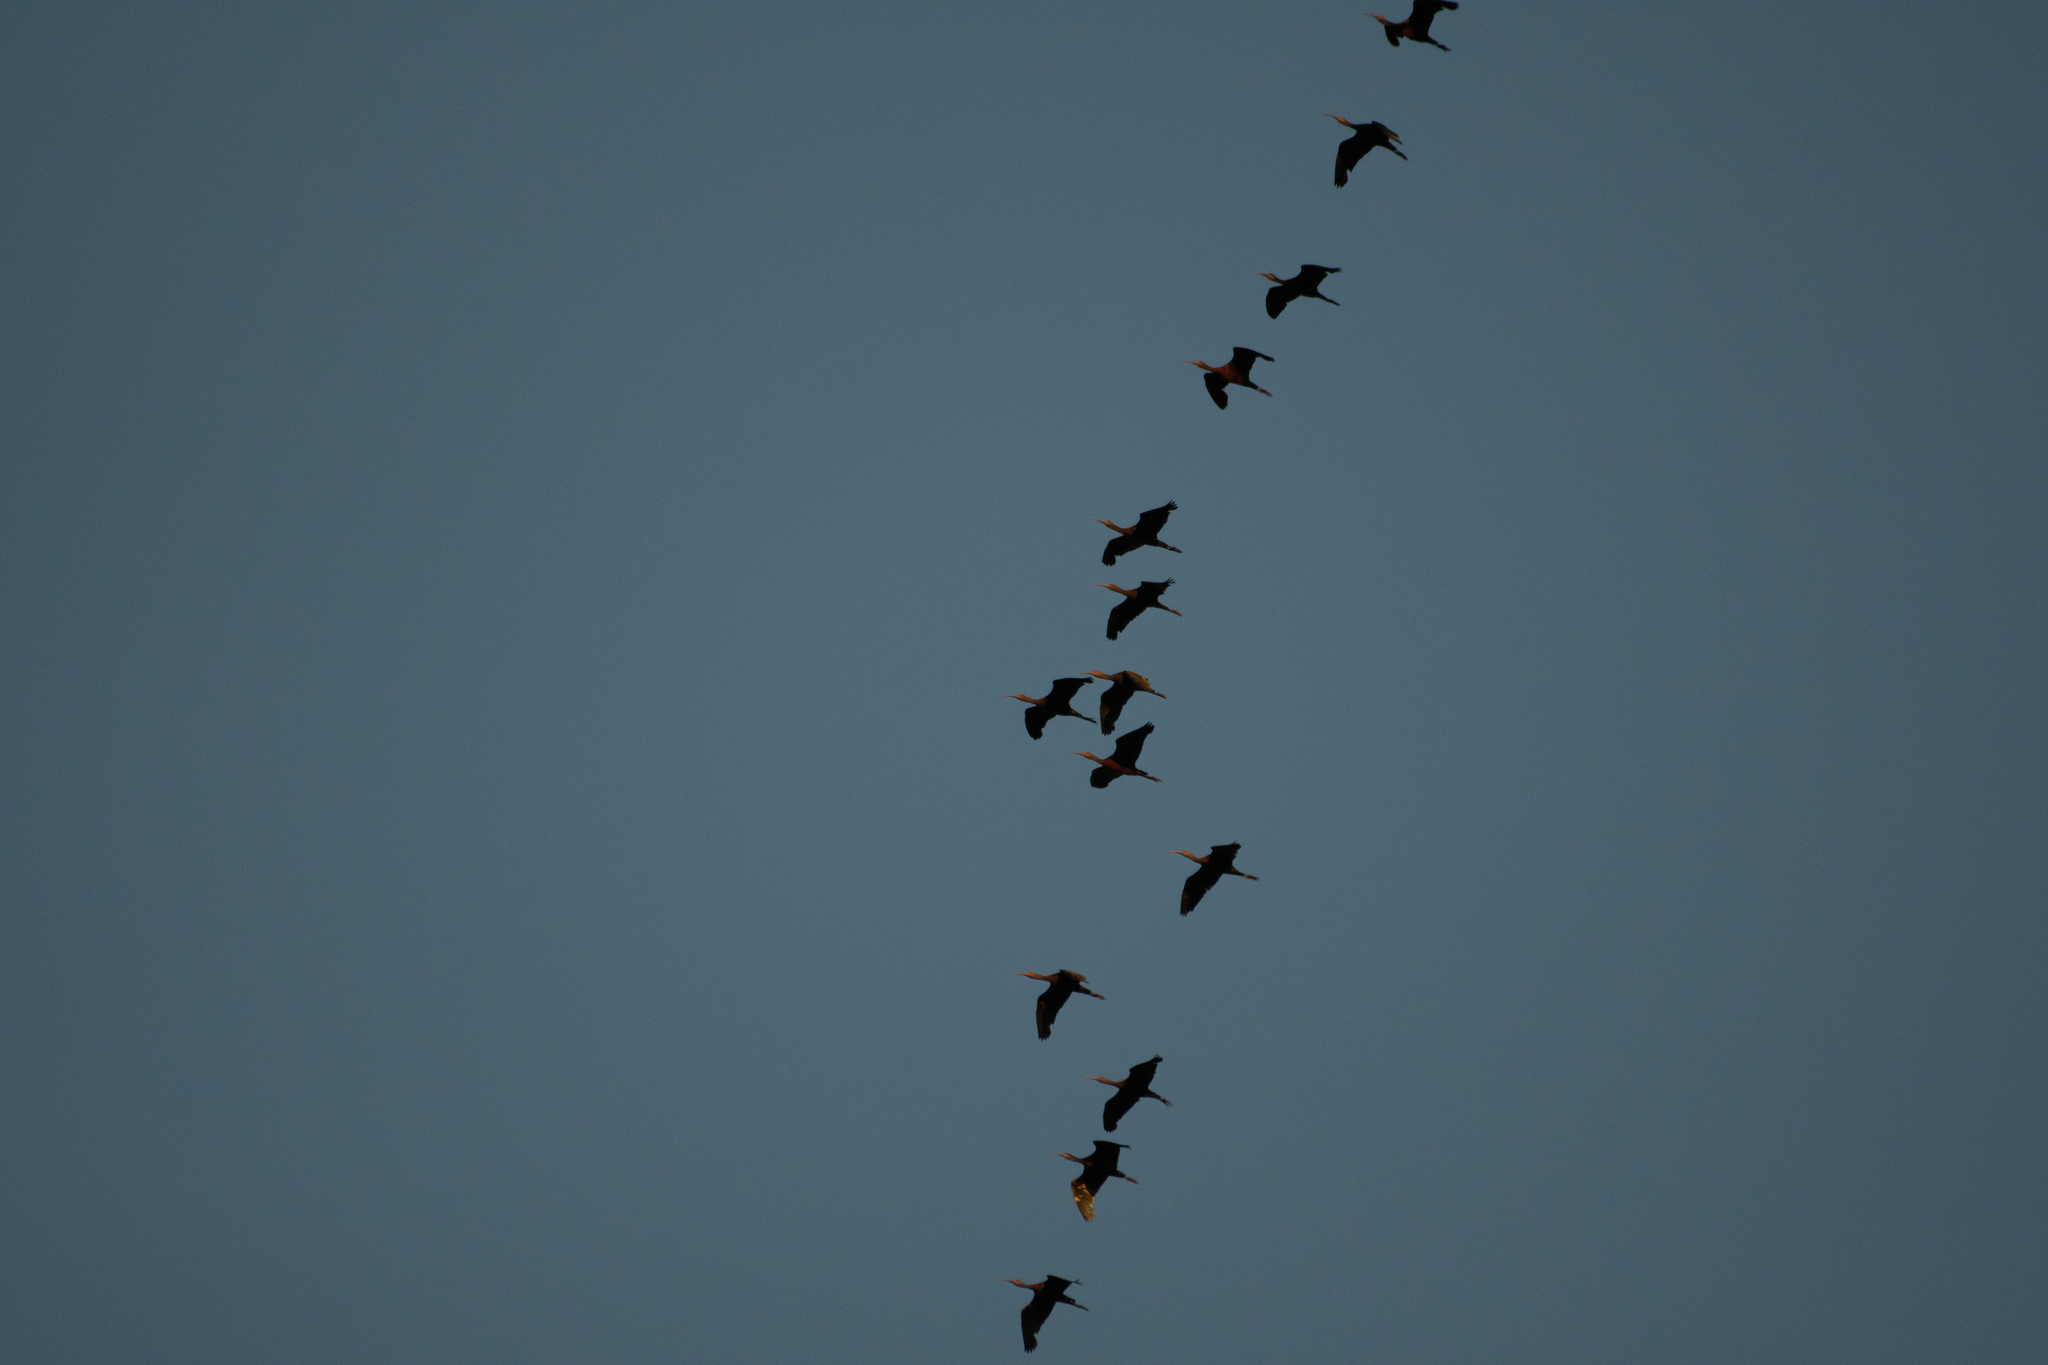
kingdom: Animalia
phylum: Chordata
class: Aves
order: Pelecaniformes
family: Threskiornithidae
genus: Plegadis
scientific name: Plegadis chihi
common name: White-faced ibis
